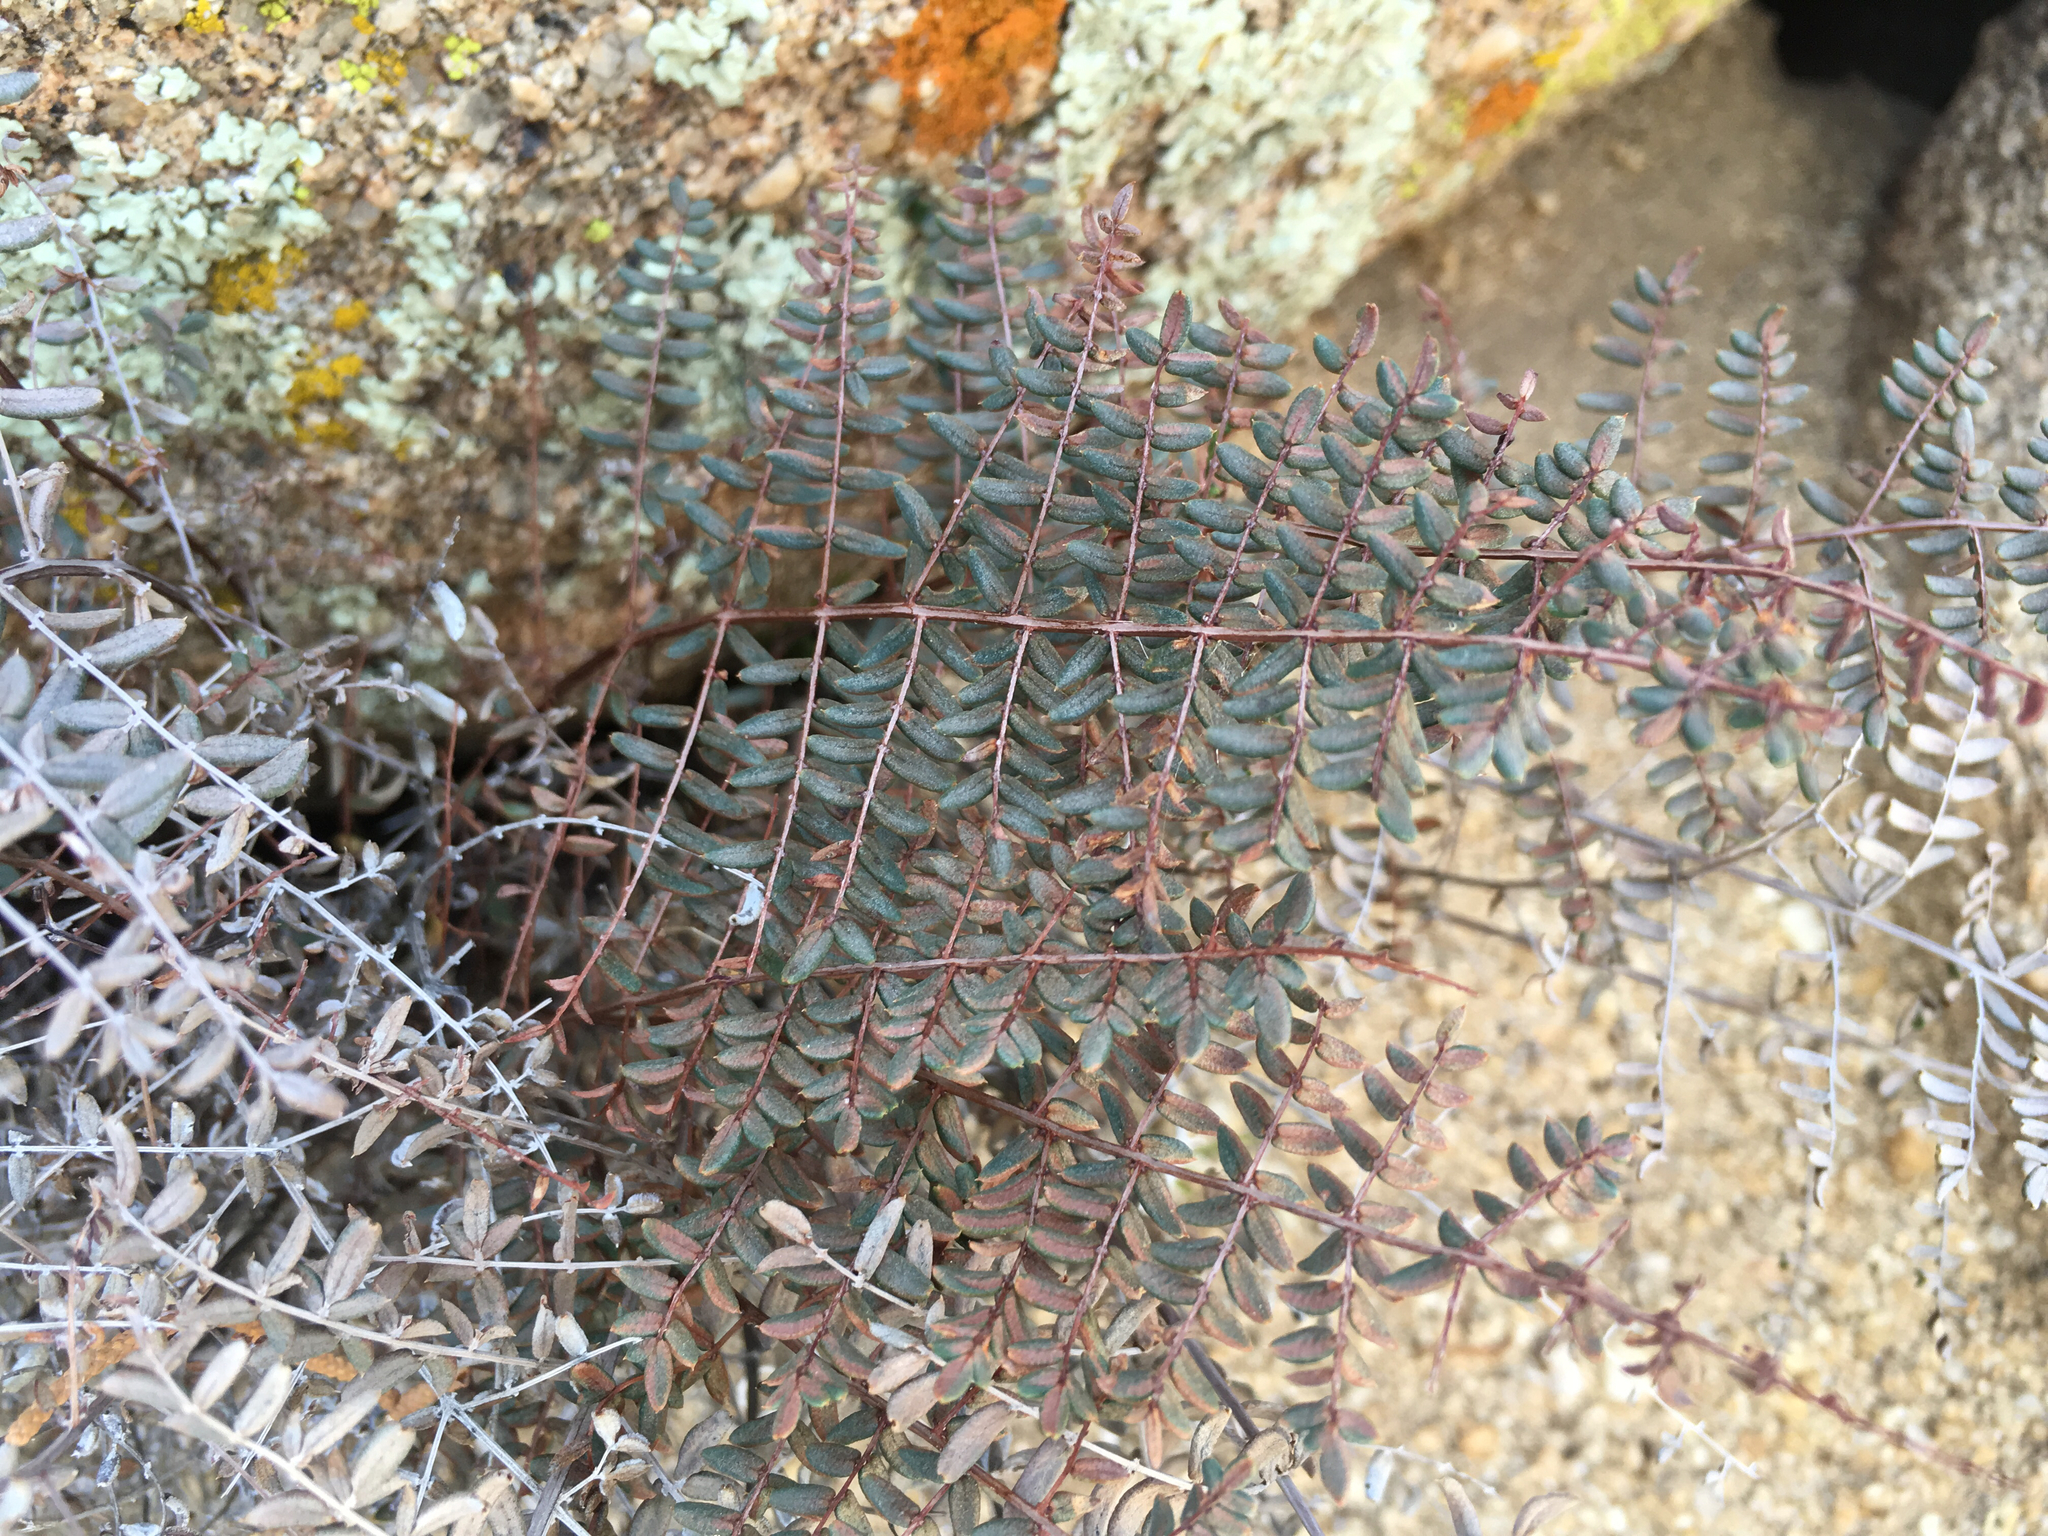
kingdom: Plantae
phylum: Tracheophyta
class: Polypodiopsida
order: Polypodiales
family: Pteridaceae
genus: Pellaea
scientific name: Pellaea mucronata
